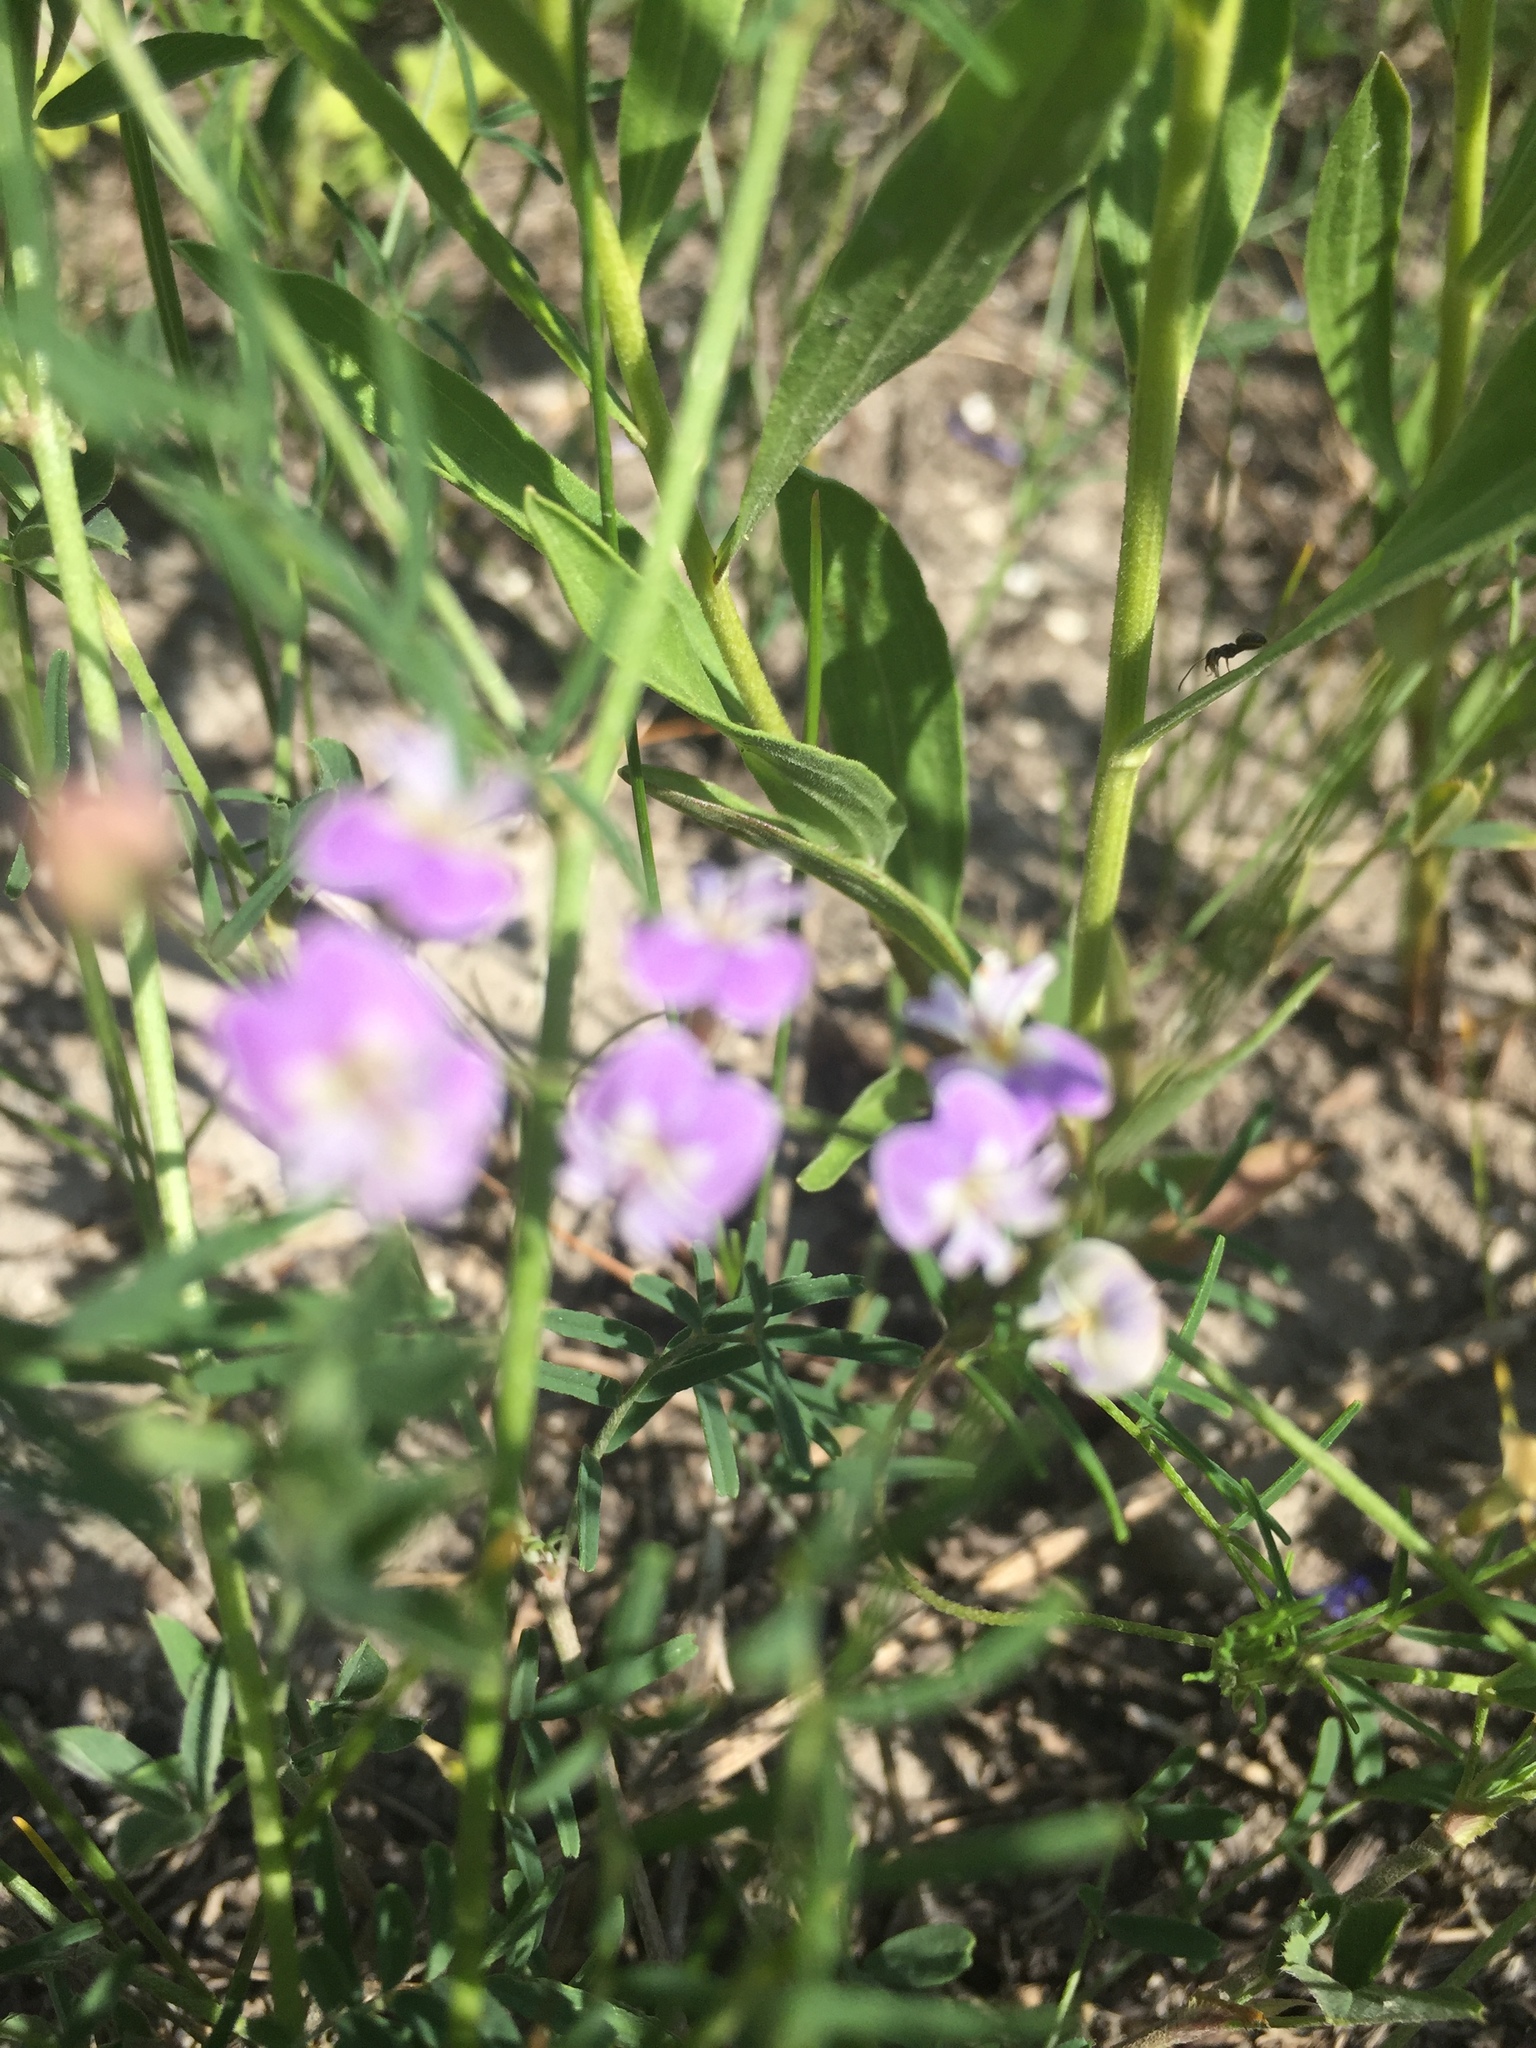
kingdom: Plantae
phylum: Tracheophyta
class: Magnoliopsida
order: Fabales
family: Fabaceae
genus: Astragalus
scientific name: Astragalus austriacus
